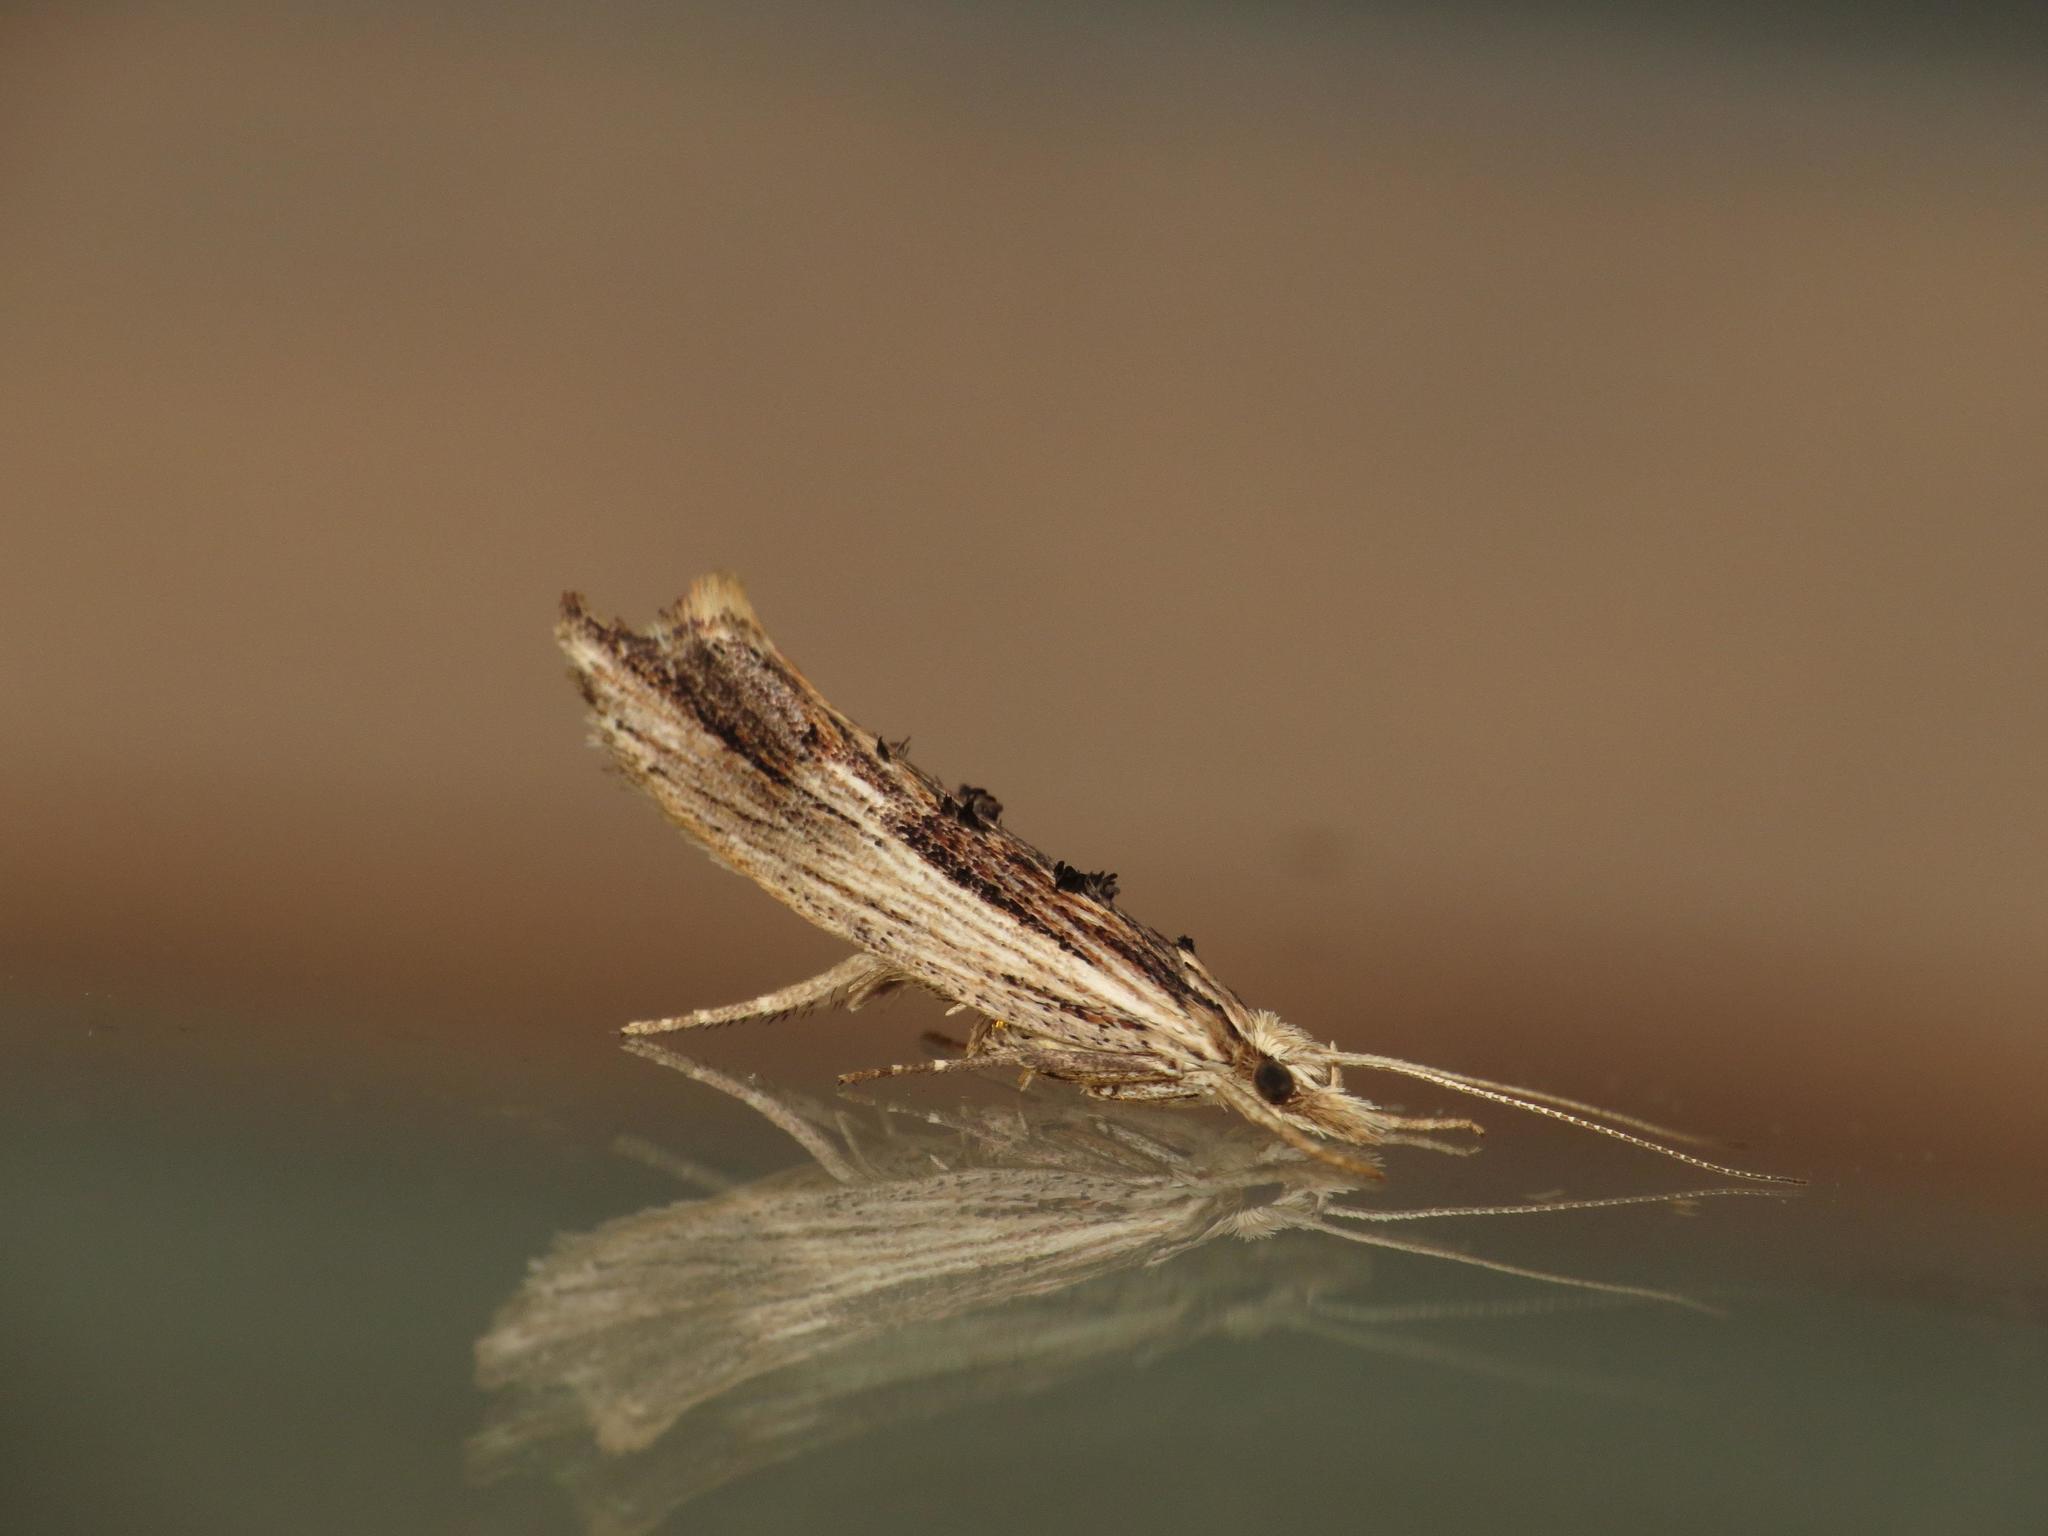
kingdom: Animalia
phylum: Arthropoda
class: Insecta
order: Lepidoptera
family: Ypsolophidae
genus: Ypsolopha
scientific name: Ypsolopha scabrella
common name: Wainscot smudge
